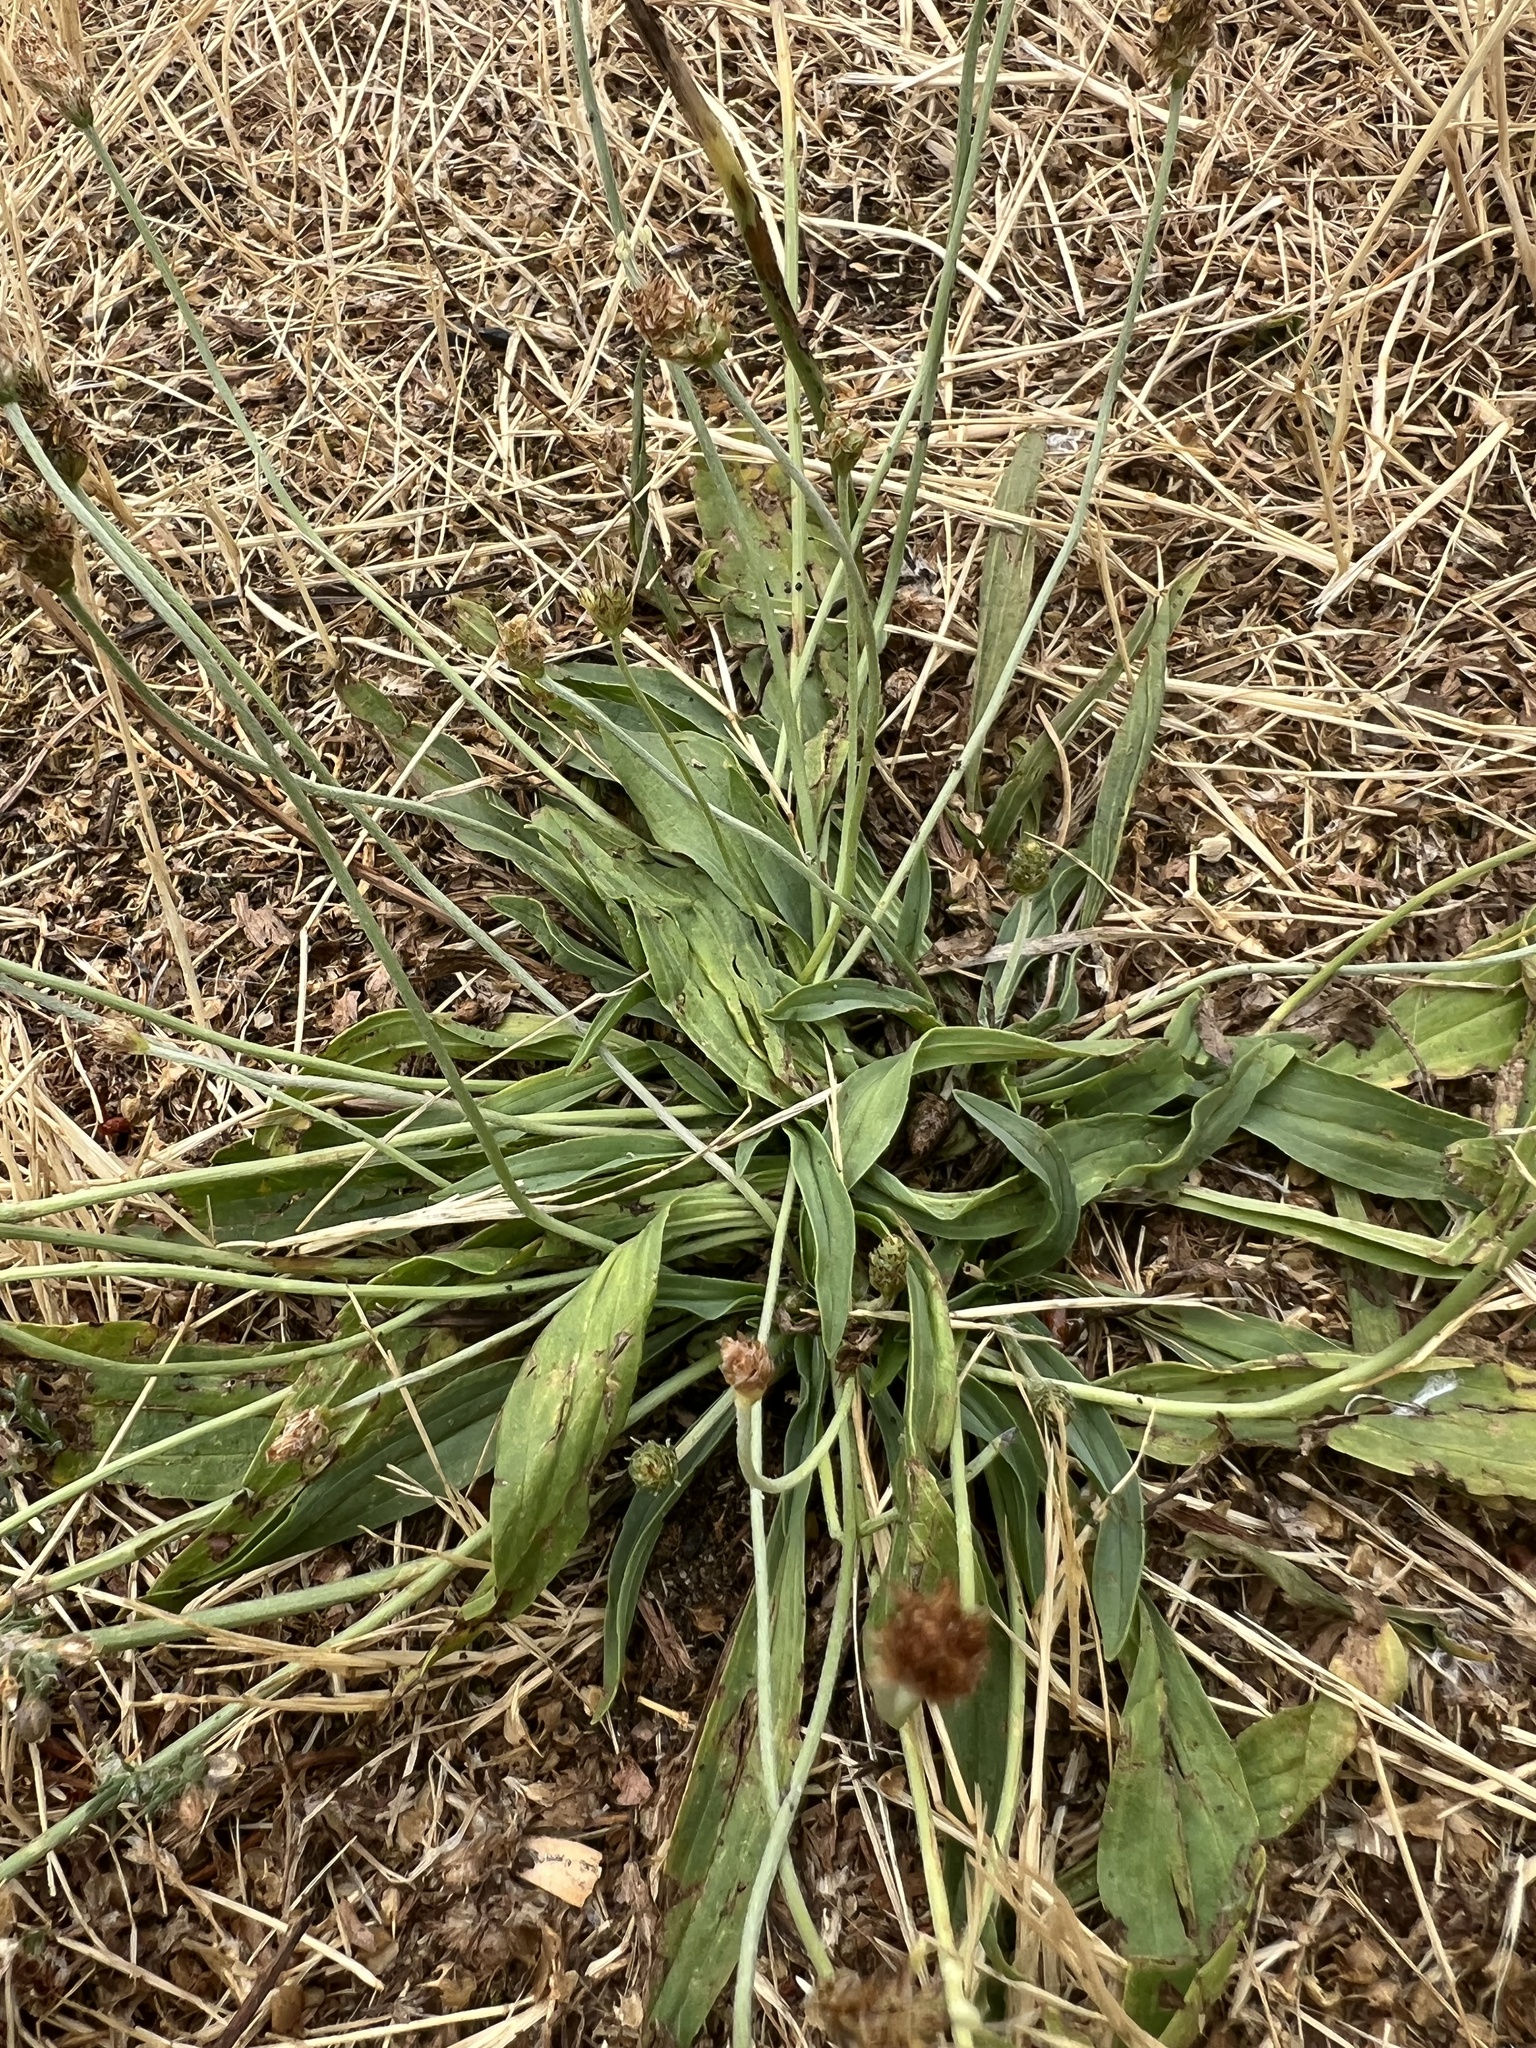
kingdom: Plantae
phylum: Tracheophyta
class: Magnoliopsida
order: Lamiales
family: Plantaginaceae
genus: Plantago
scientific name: Plantago lanceolata
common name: Ribwort plantain
